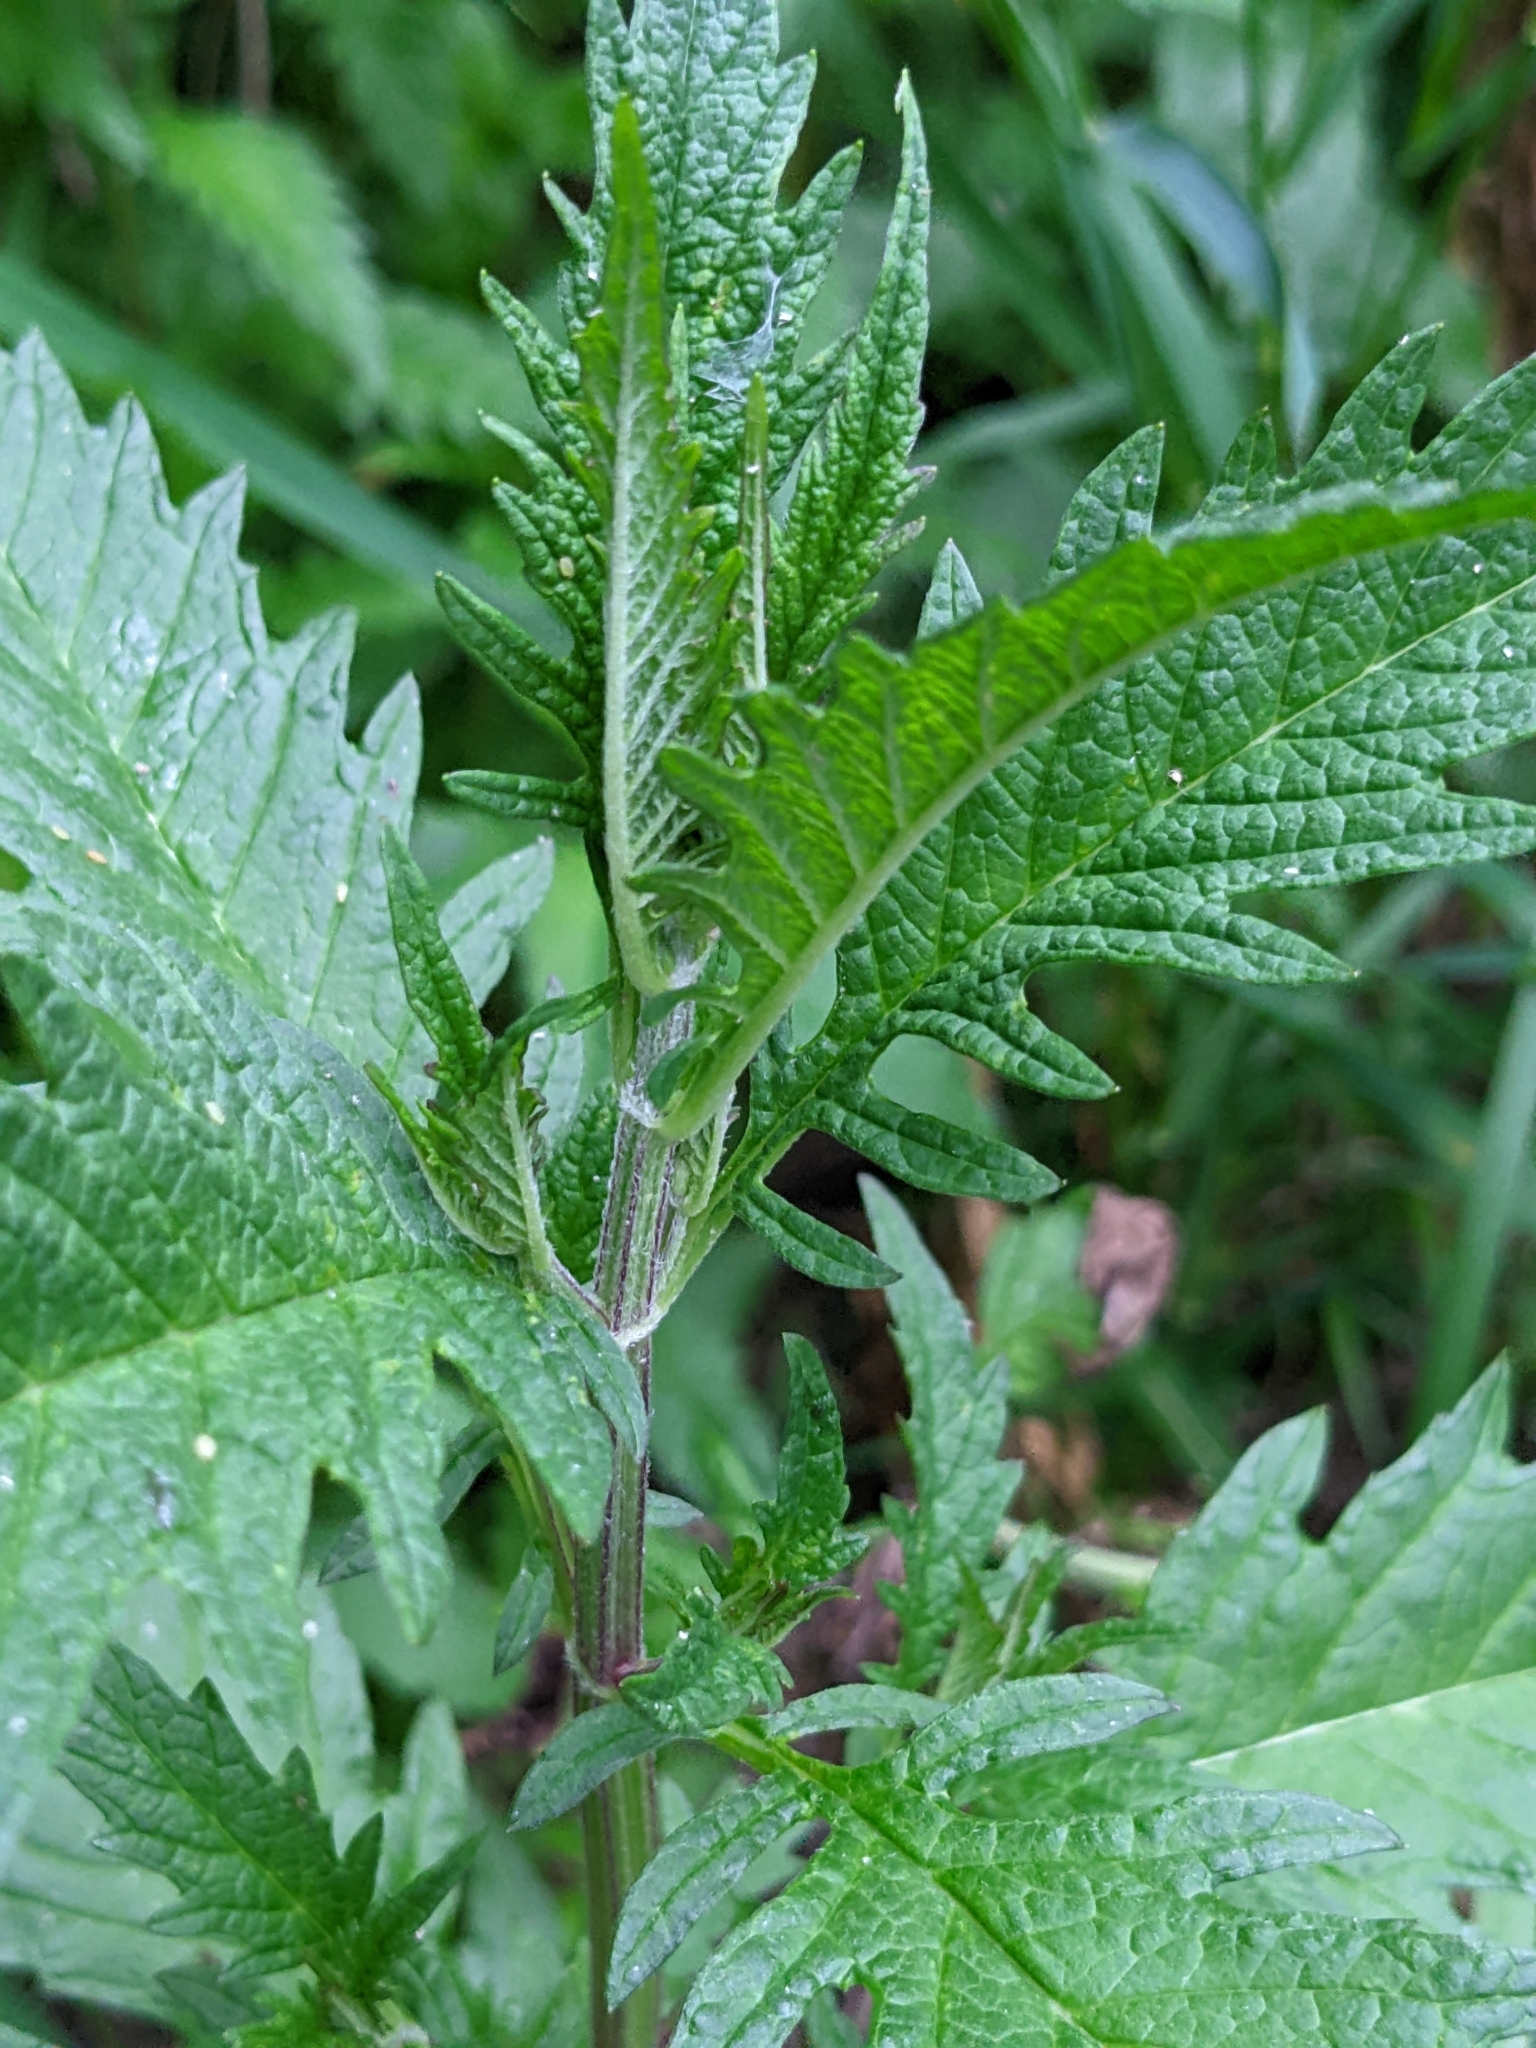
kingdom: Plantae
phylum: Tracheophyta
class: Magnoliopsida
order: Lamiales
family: Lamiaceae
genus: Lycopus
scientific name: Lycopus europaeus
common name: European bugleweed
